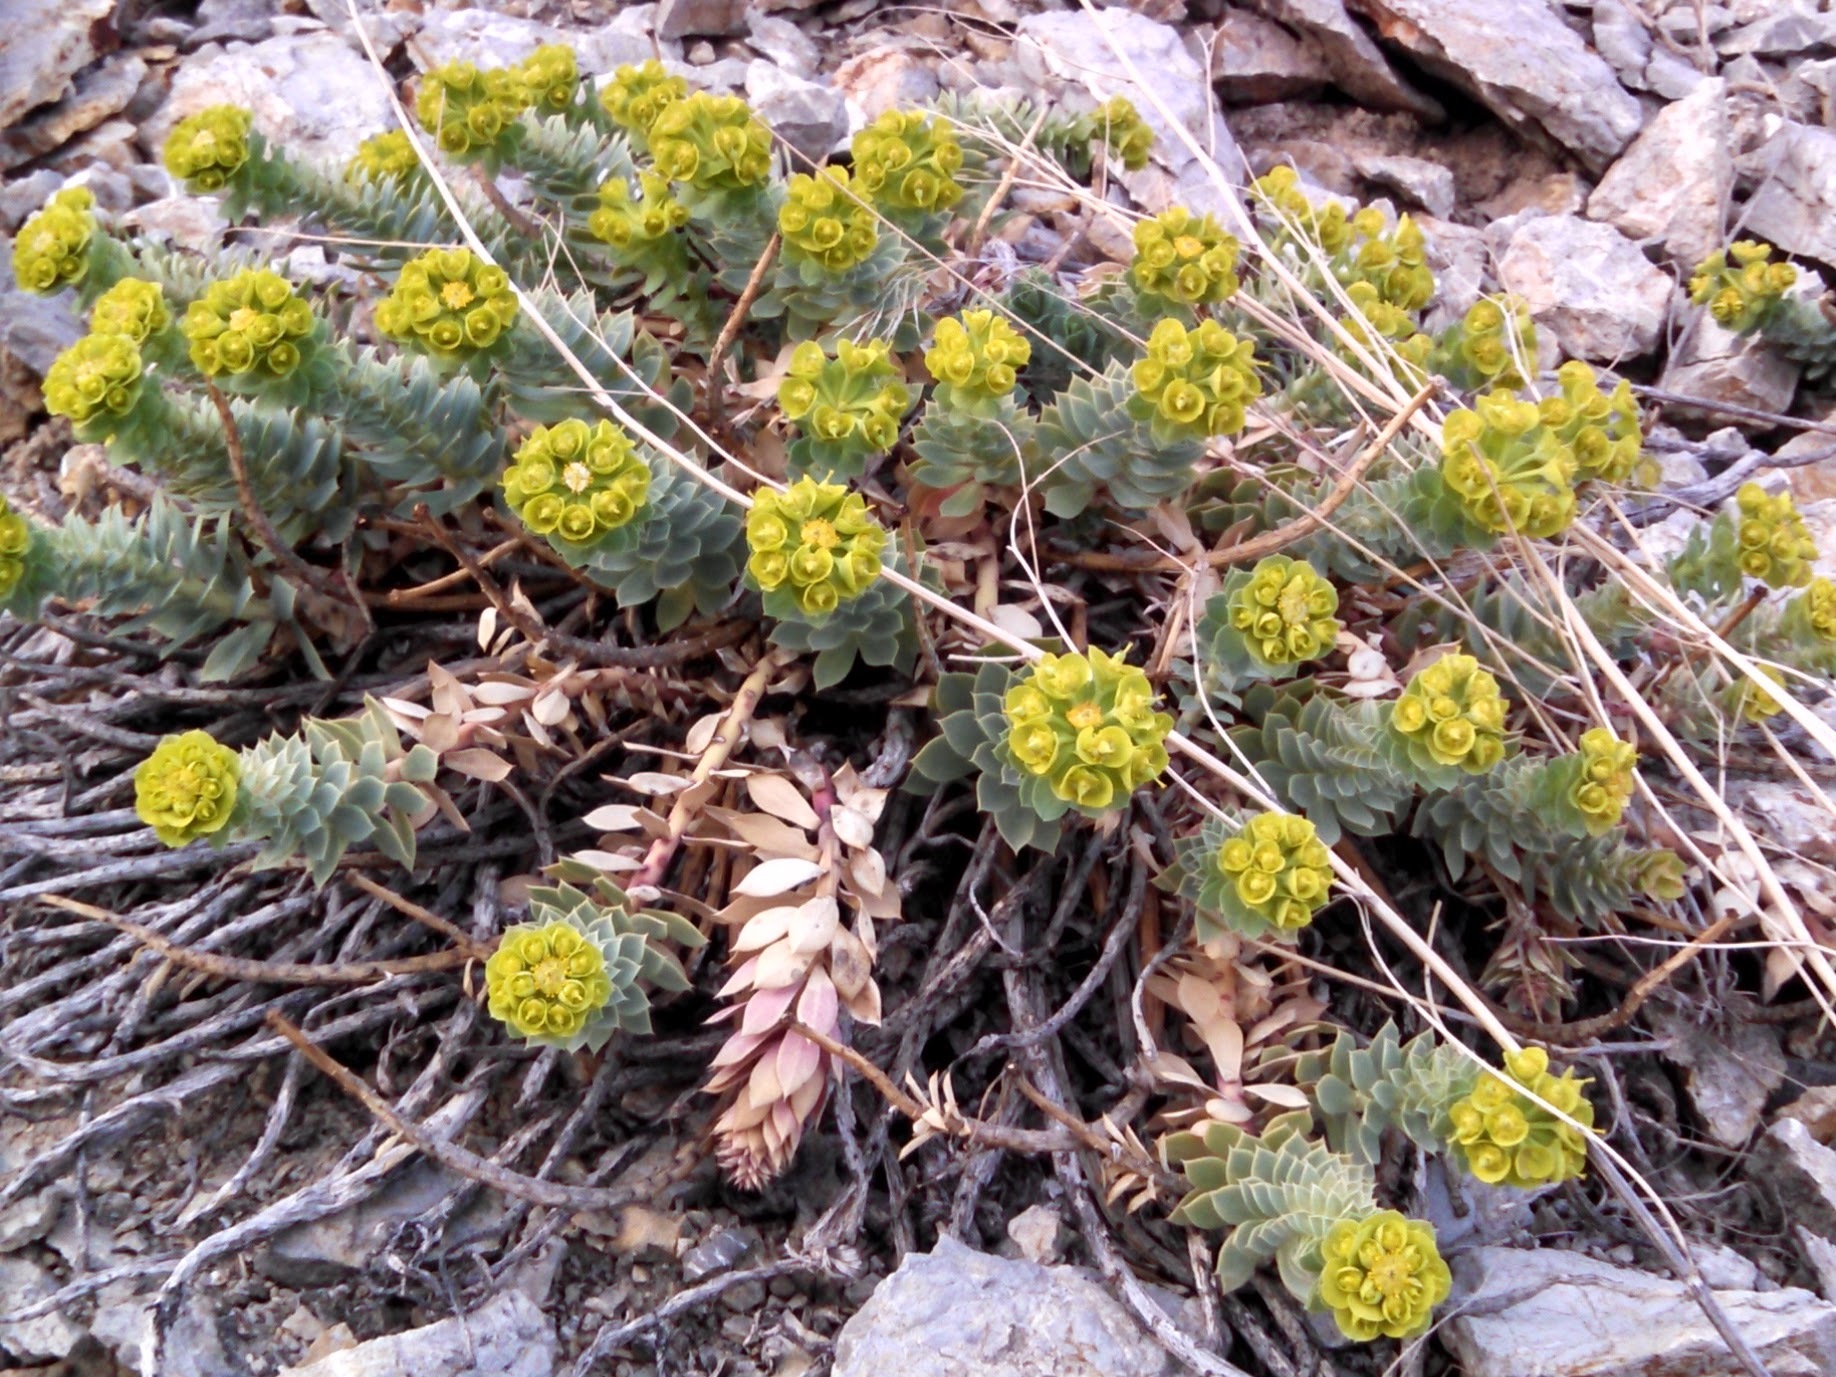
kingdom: Plantae
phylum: Tracheophyta
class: Magnoliopsida
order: Malpighiales
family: Euphorbiaceae
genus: Euphorbia
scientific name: Euphorbia myrsinites
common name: Myrtle spurge
